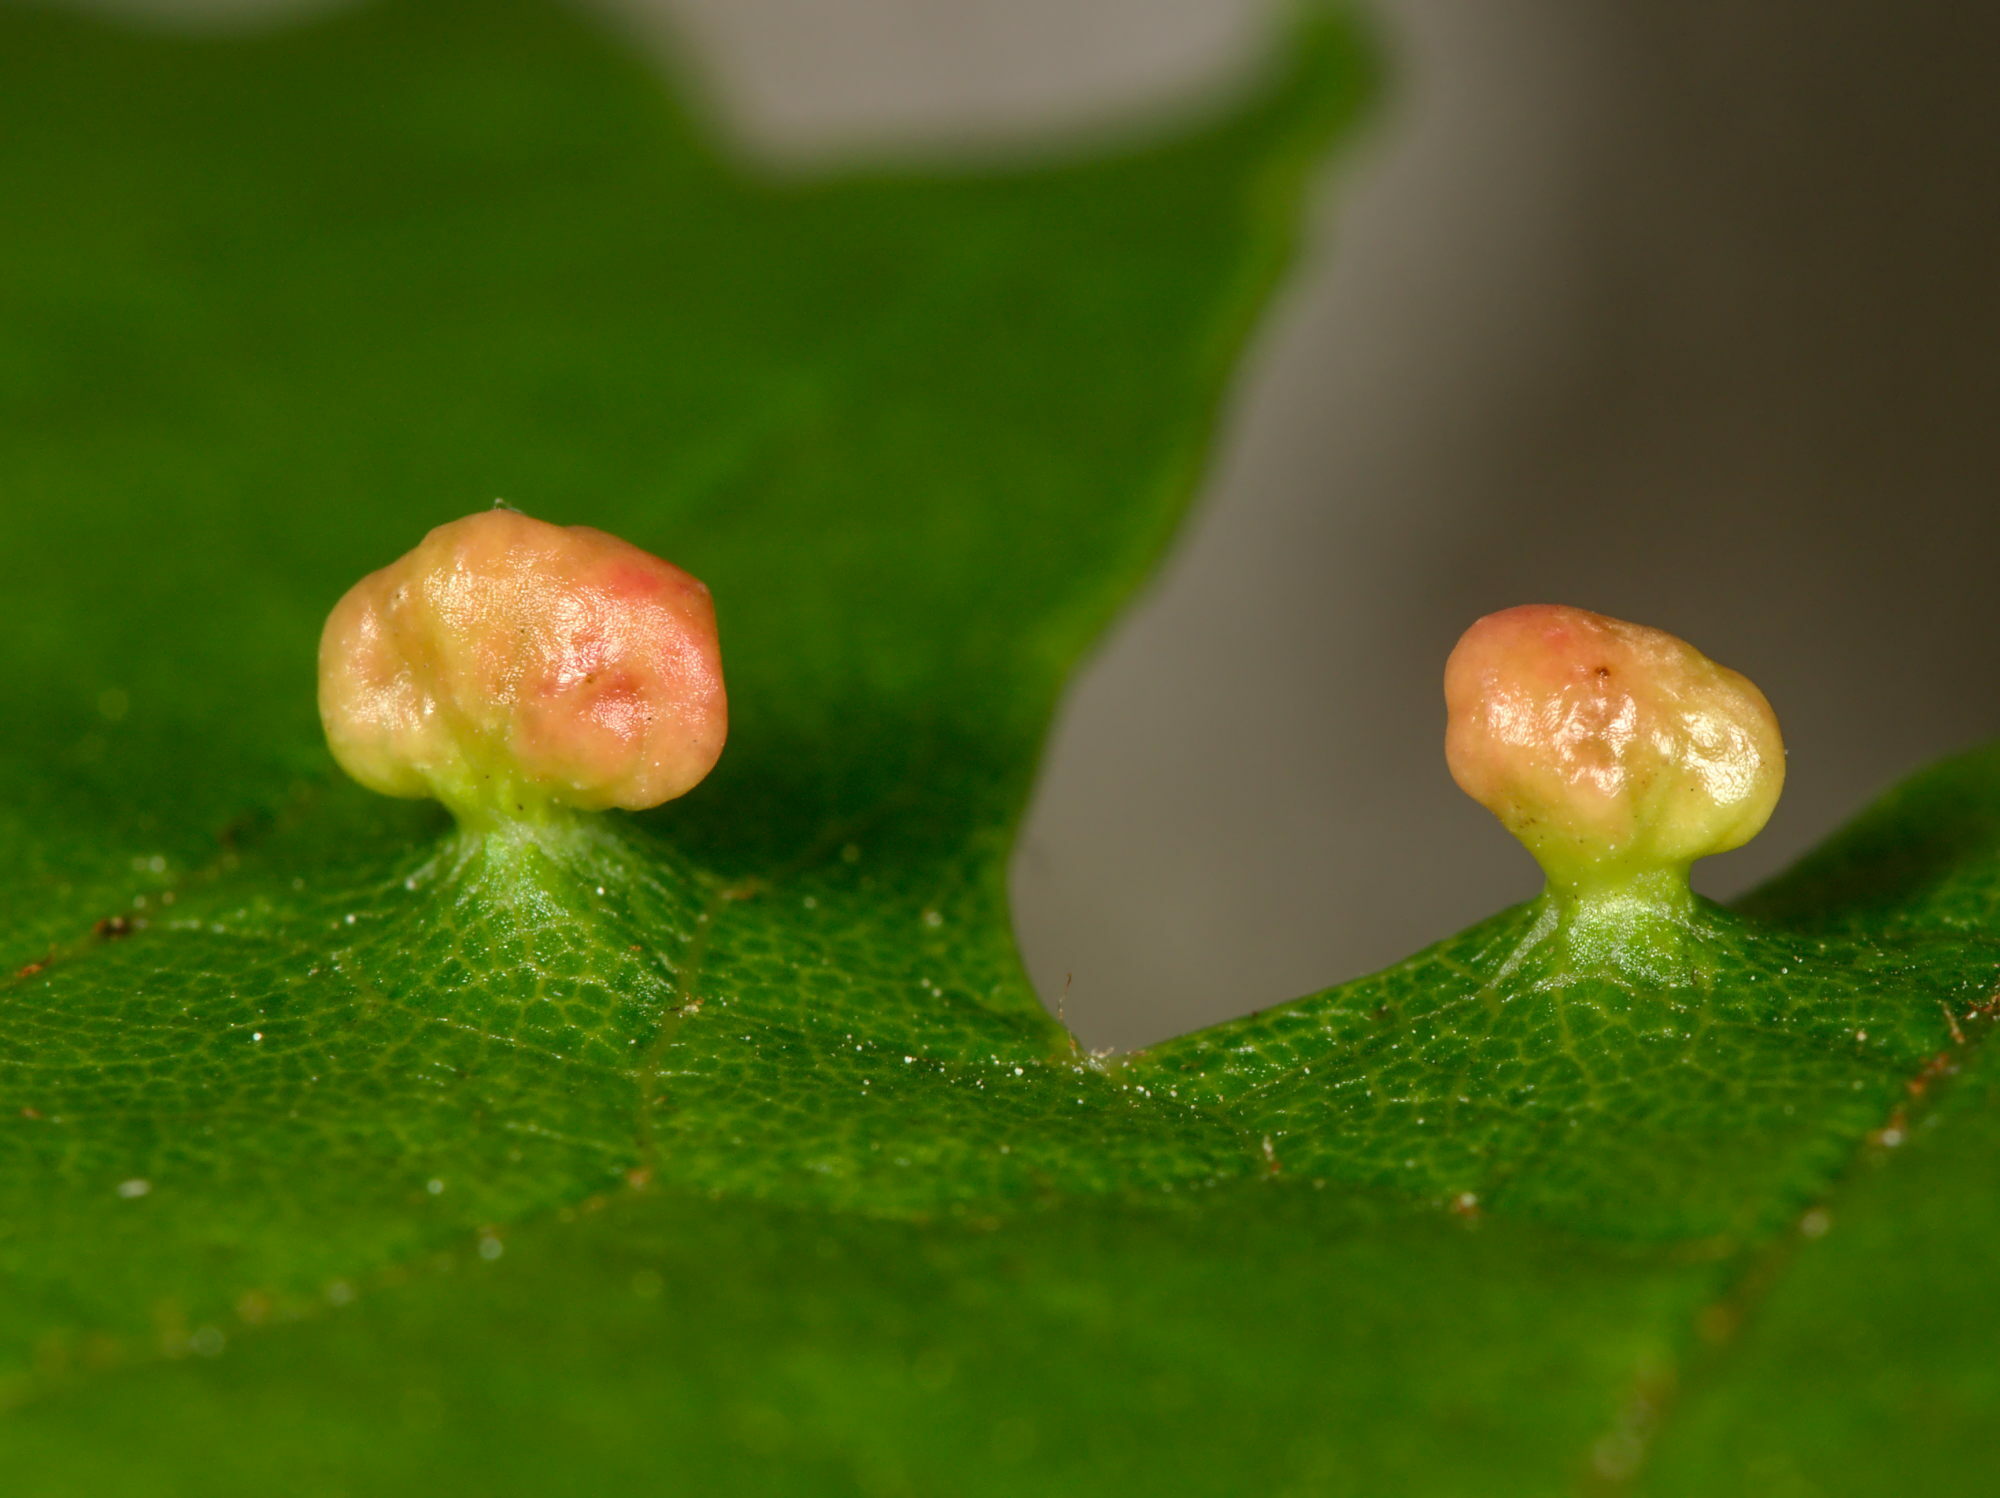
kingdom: Animalia
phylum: Arthropoda
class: Arachnida
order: Trombidiformes
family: Eriophyidae
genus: Vasates
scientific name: Vasates quadripedes
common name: Maple bladder gall mite
